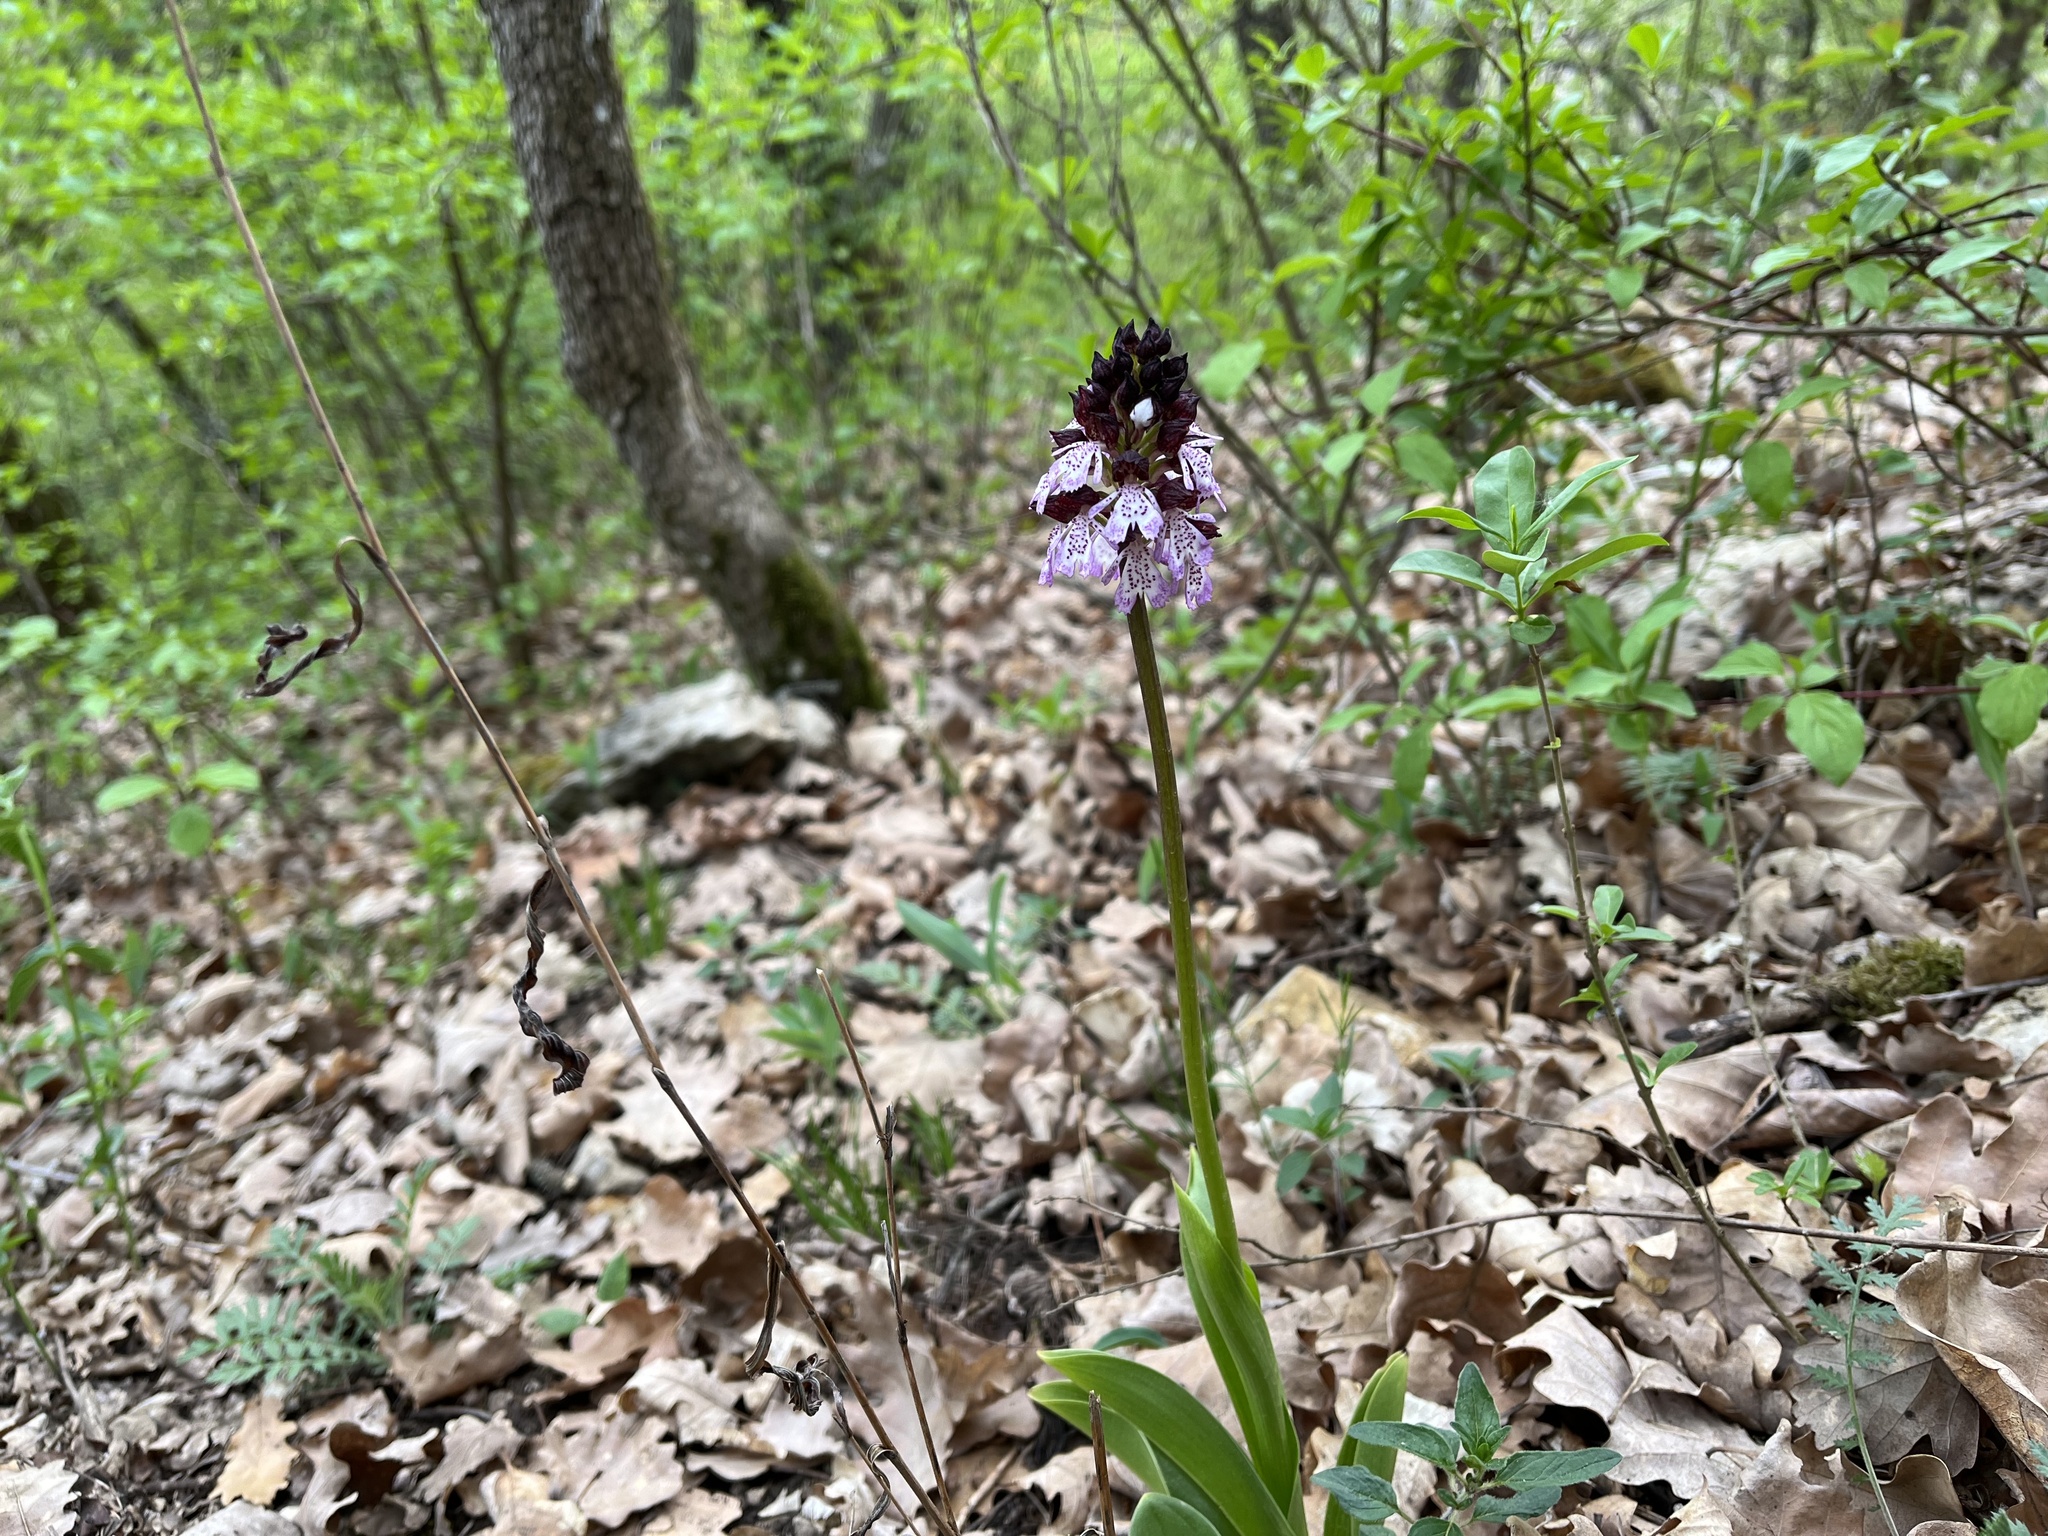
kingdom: Plantae
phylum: Tracheophyta
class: Liliopsida
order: Asparagales
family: Orchidaceae
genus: Orchis
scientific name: Orchis purpurea
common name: Lady orchid
